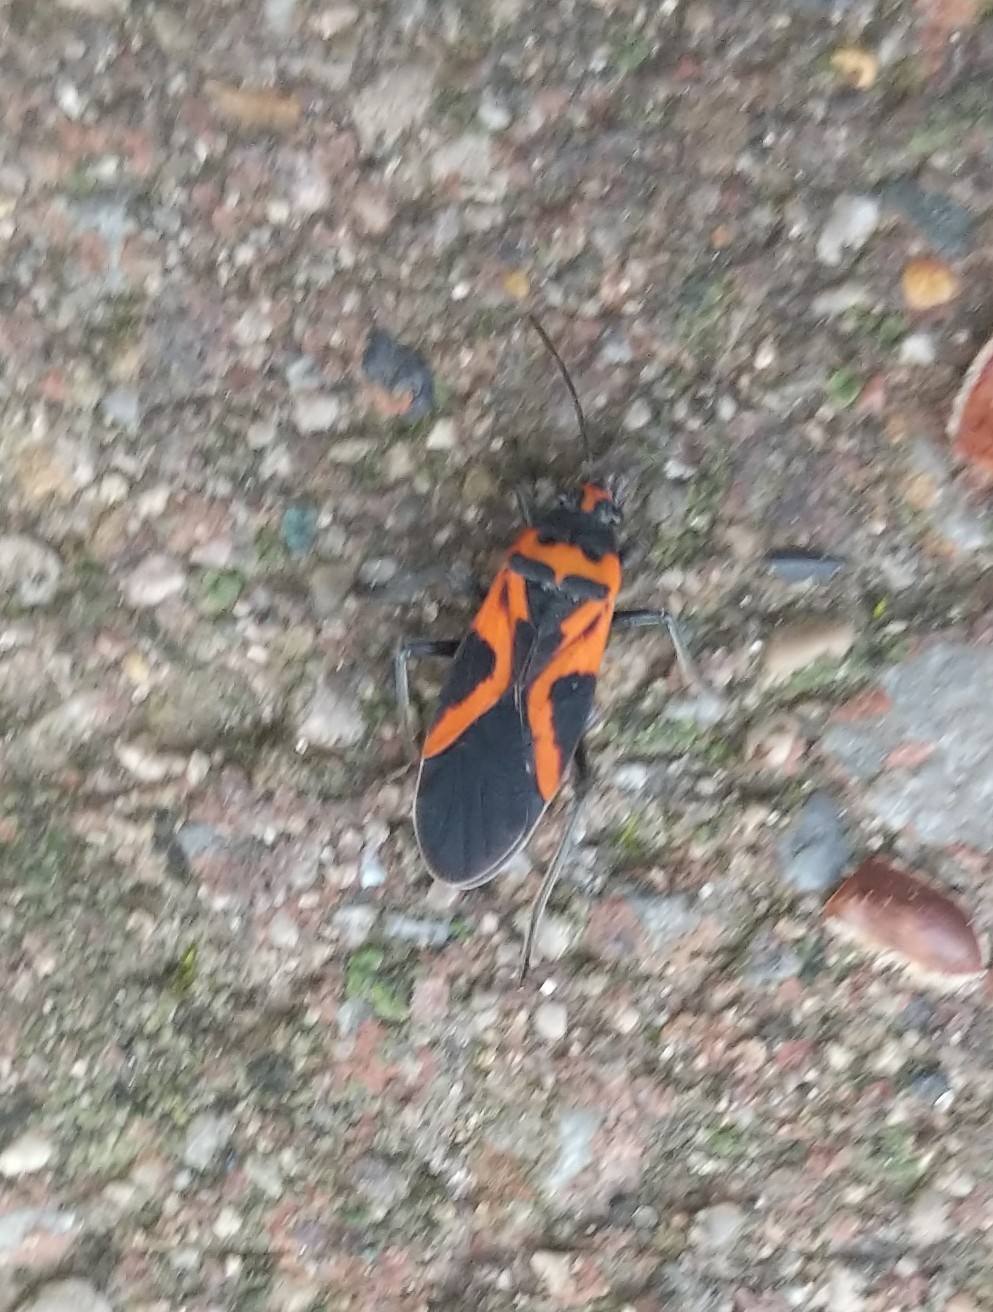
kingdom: Animalia
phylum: Arthropoda
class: Insecta
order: Hemiptera
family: Lygaeidae
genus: Lygaeus
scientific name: Lygaeus turcicus
